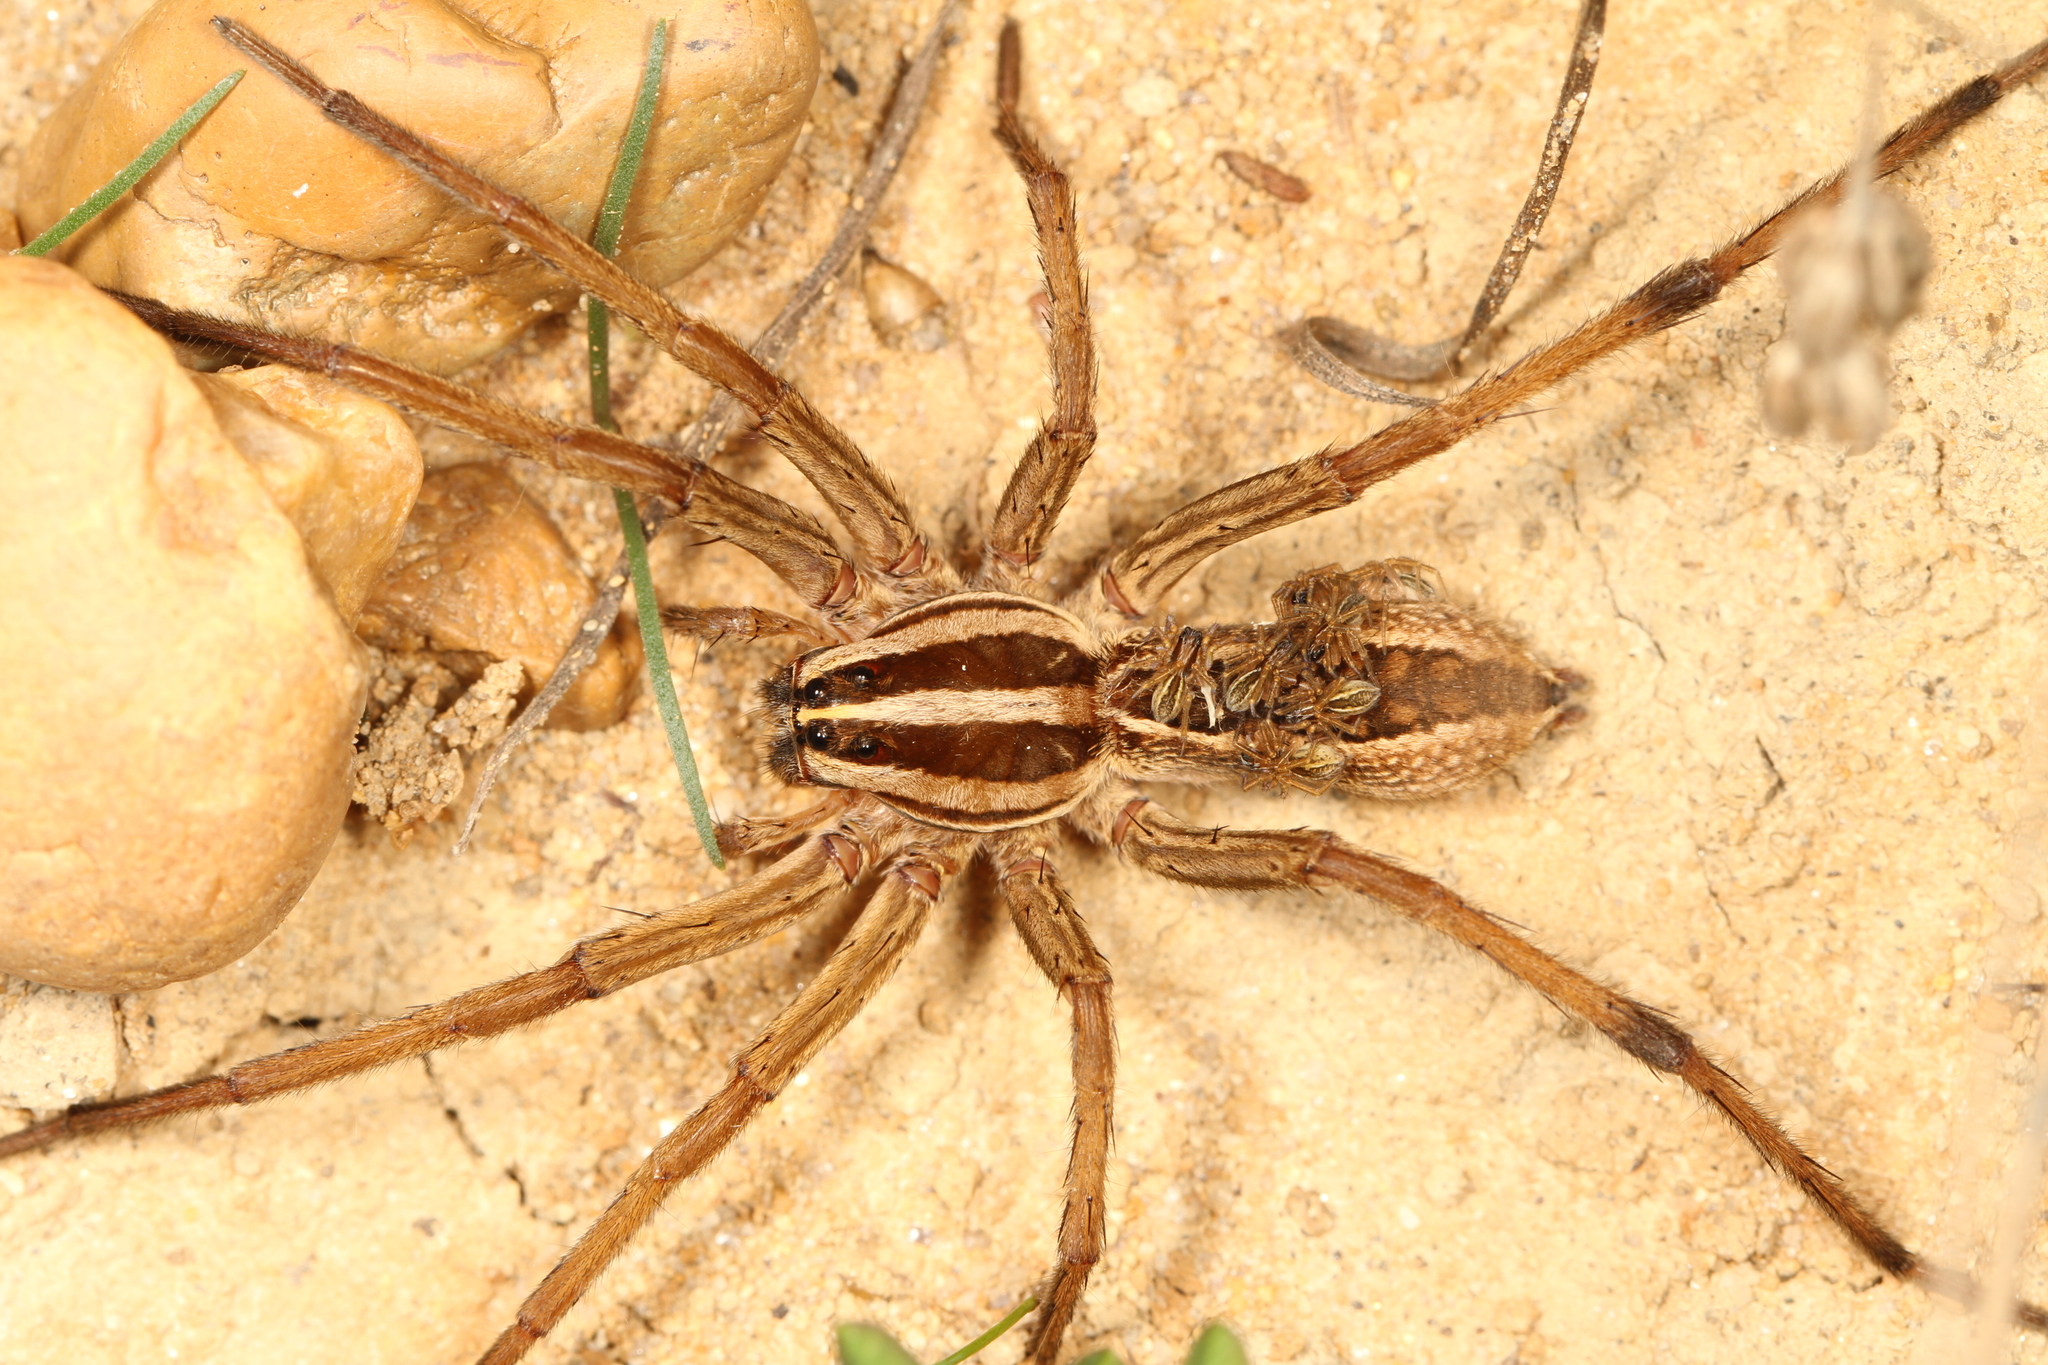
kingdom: Animalia
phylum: Arthropoda
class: Arachnida
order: Araneae
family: Lycosidae
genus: Rabidosa
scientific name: Rabidosa rabida
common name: Rabid wolf spider
